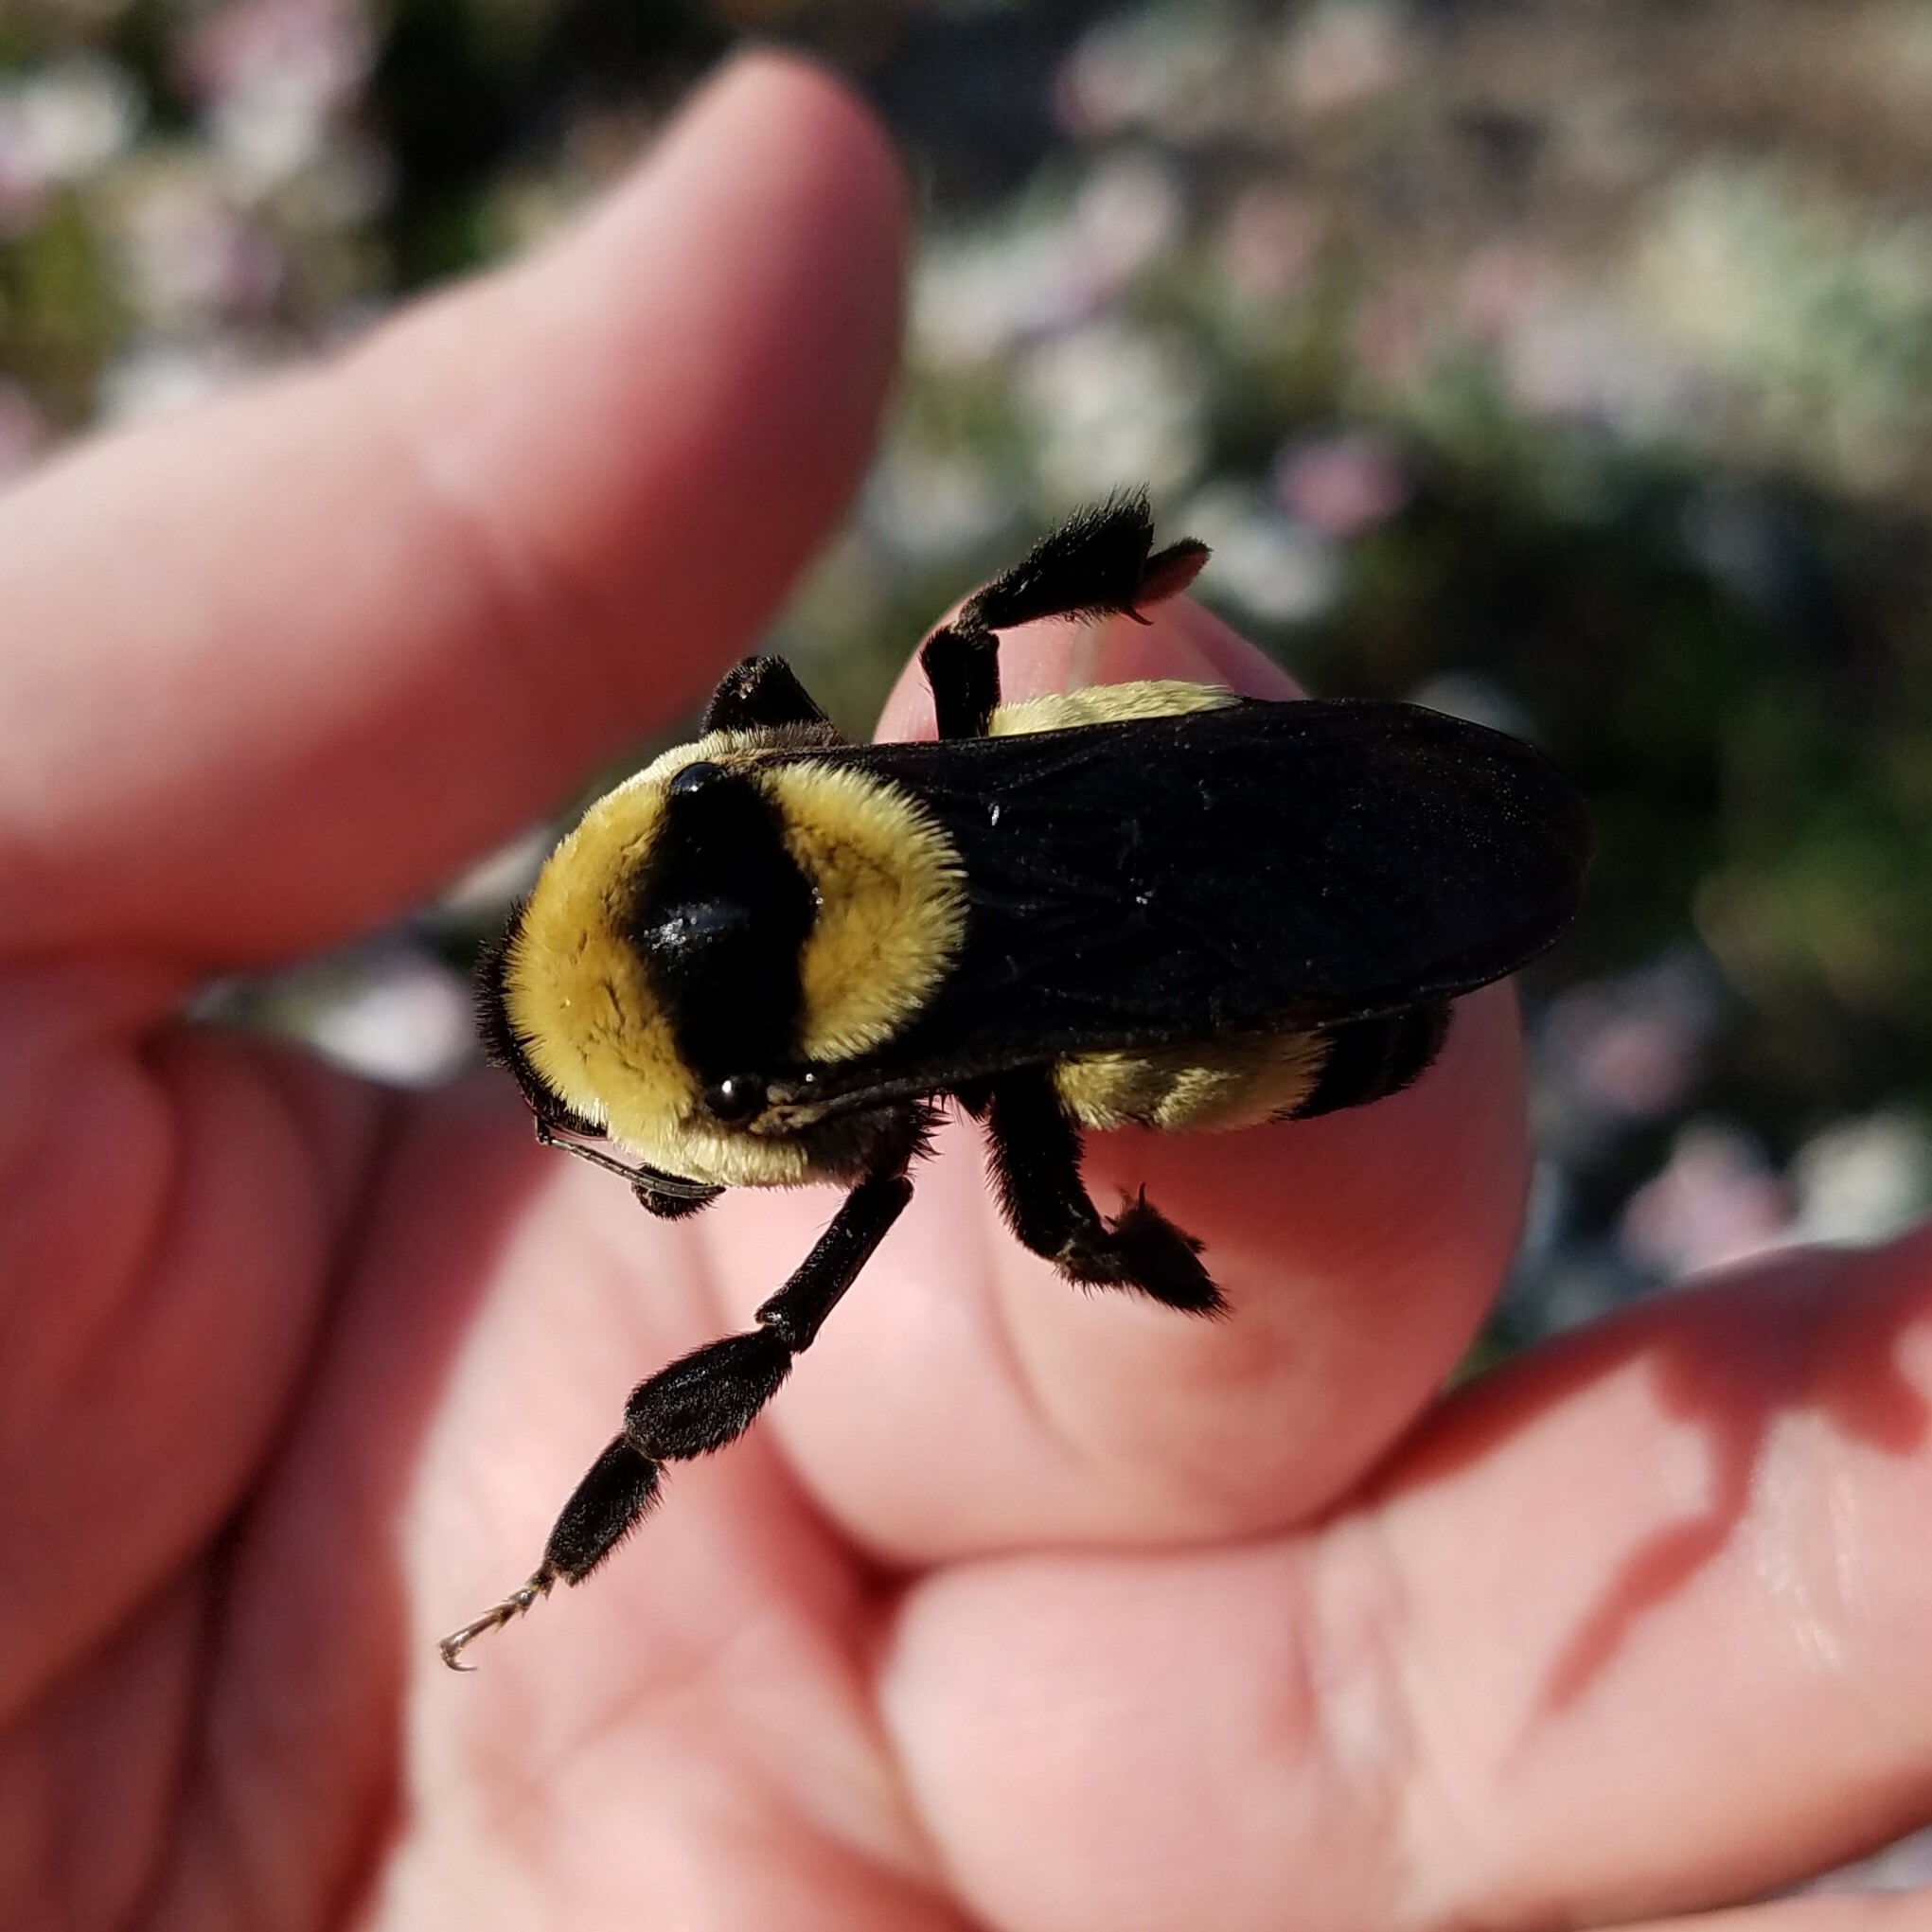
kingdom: Animalia
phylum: Arthropoda
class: Insecta
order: Hymenoptera
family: Apidae
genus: Bombus
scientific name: Bombus fraternus
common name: Southern plains bumble bee
